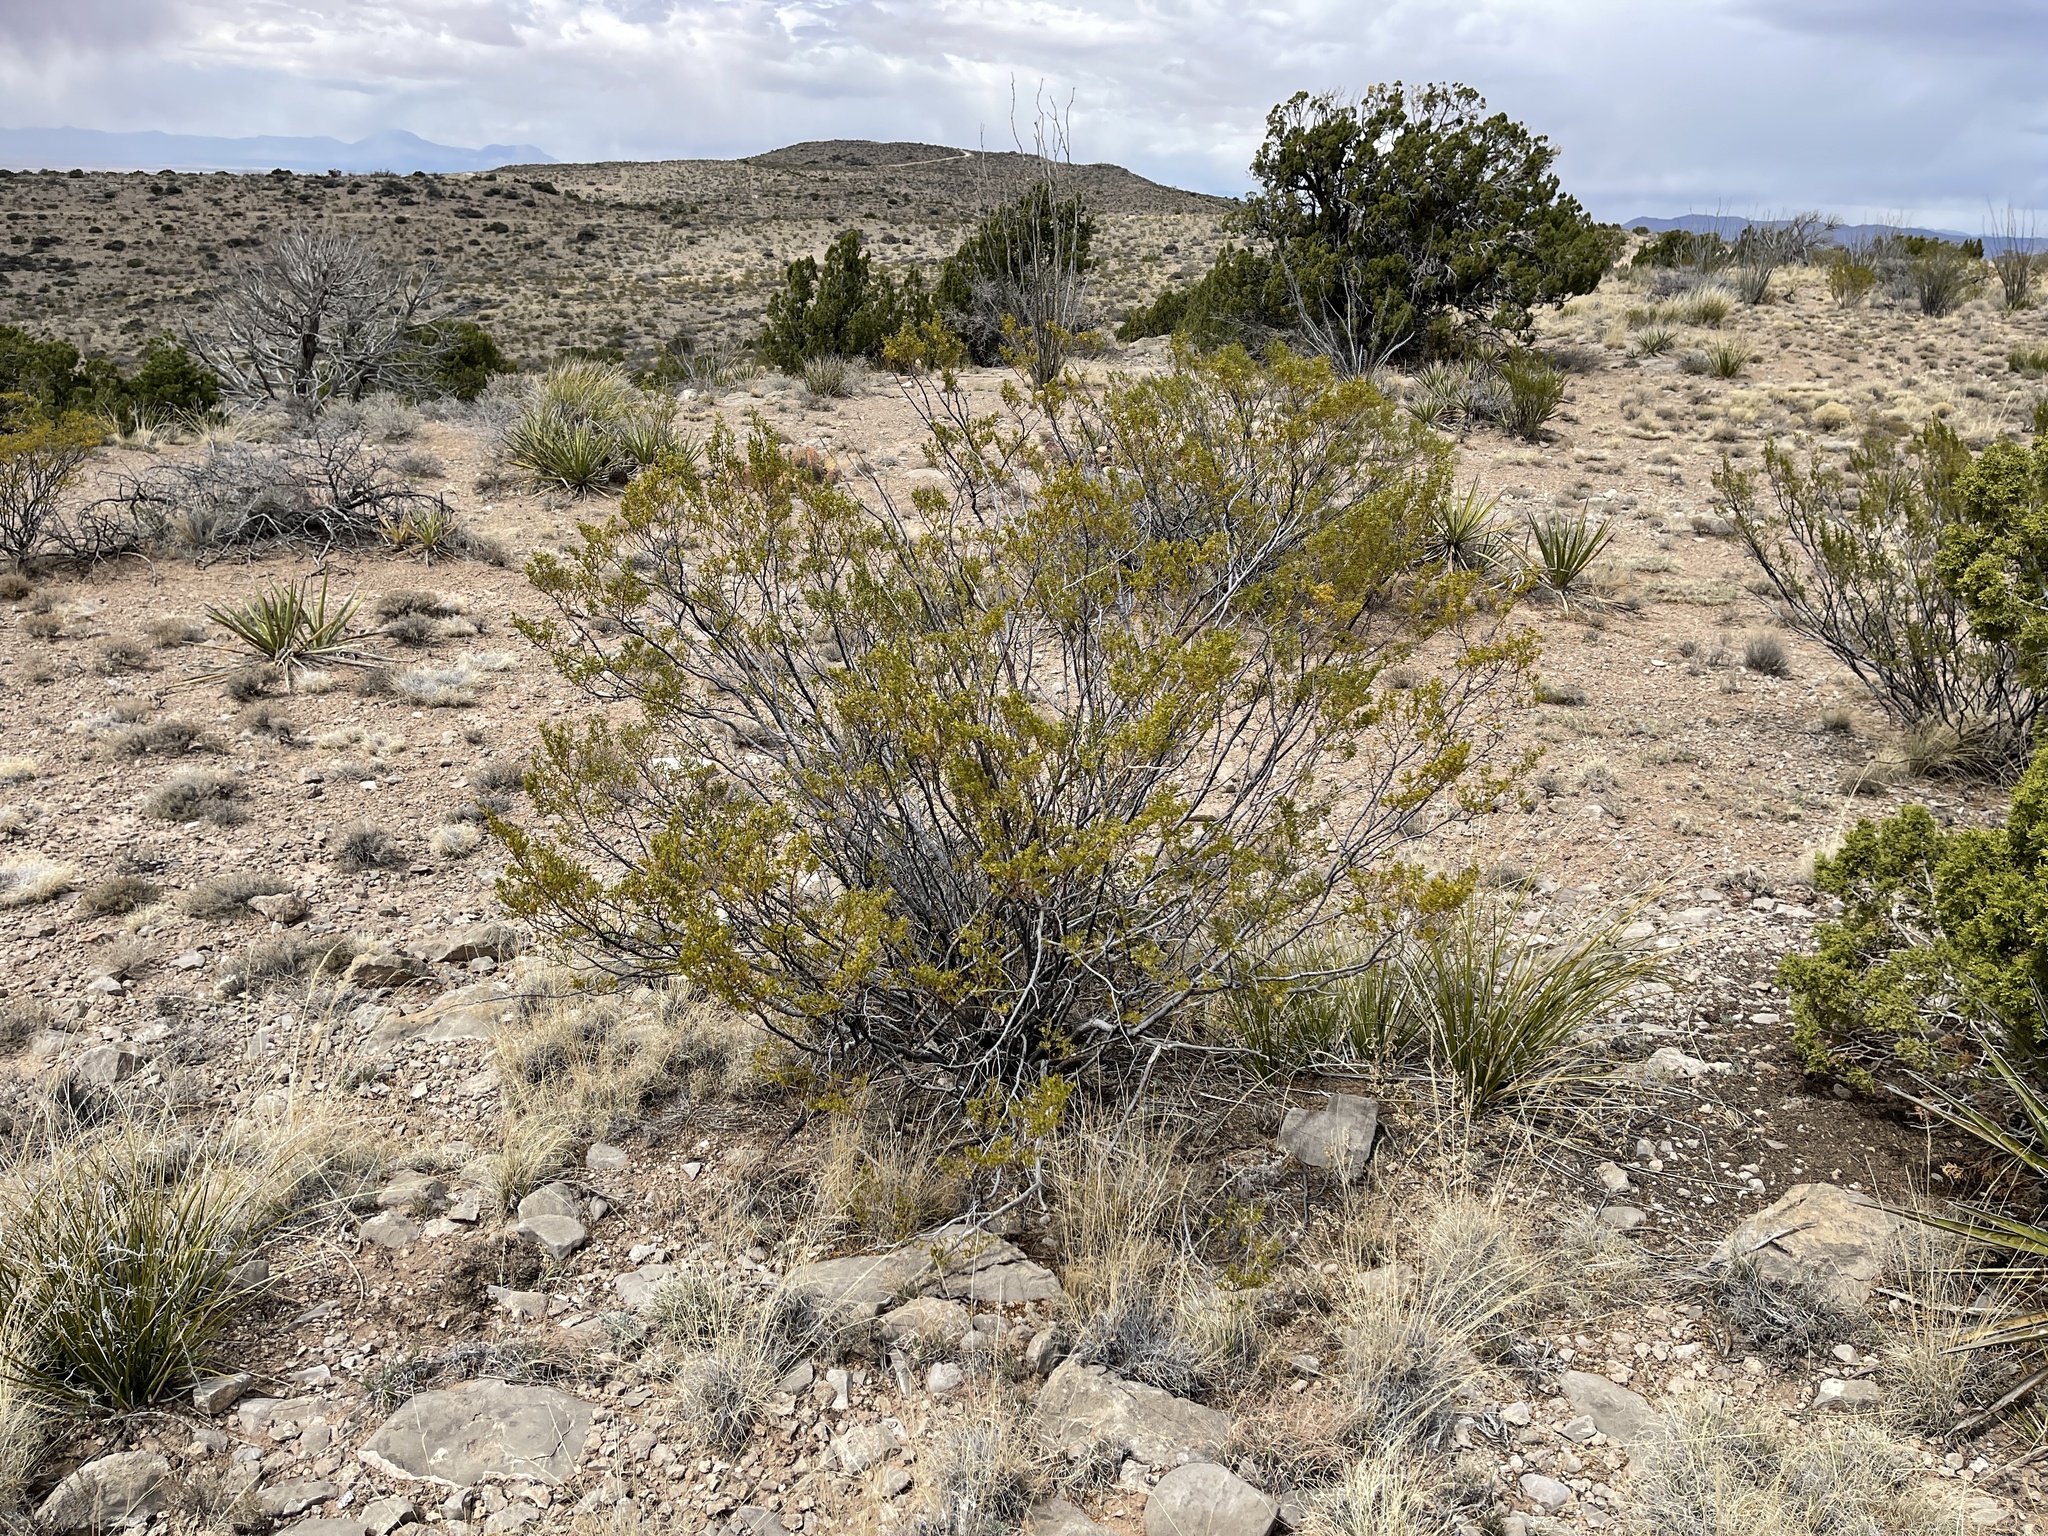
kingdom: Plantae
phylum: Tracheophyta
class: Magnoliopsida
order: Zygophyllales
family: Zygophyllaceae
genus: Larrea
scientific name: Larrea tridentata
